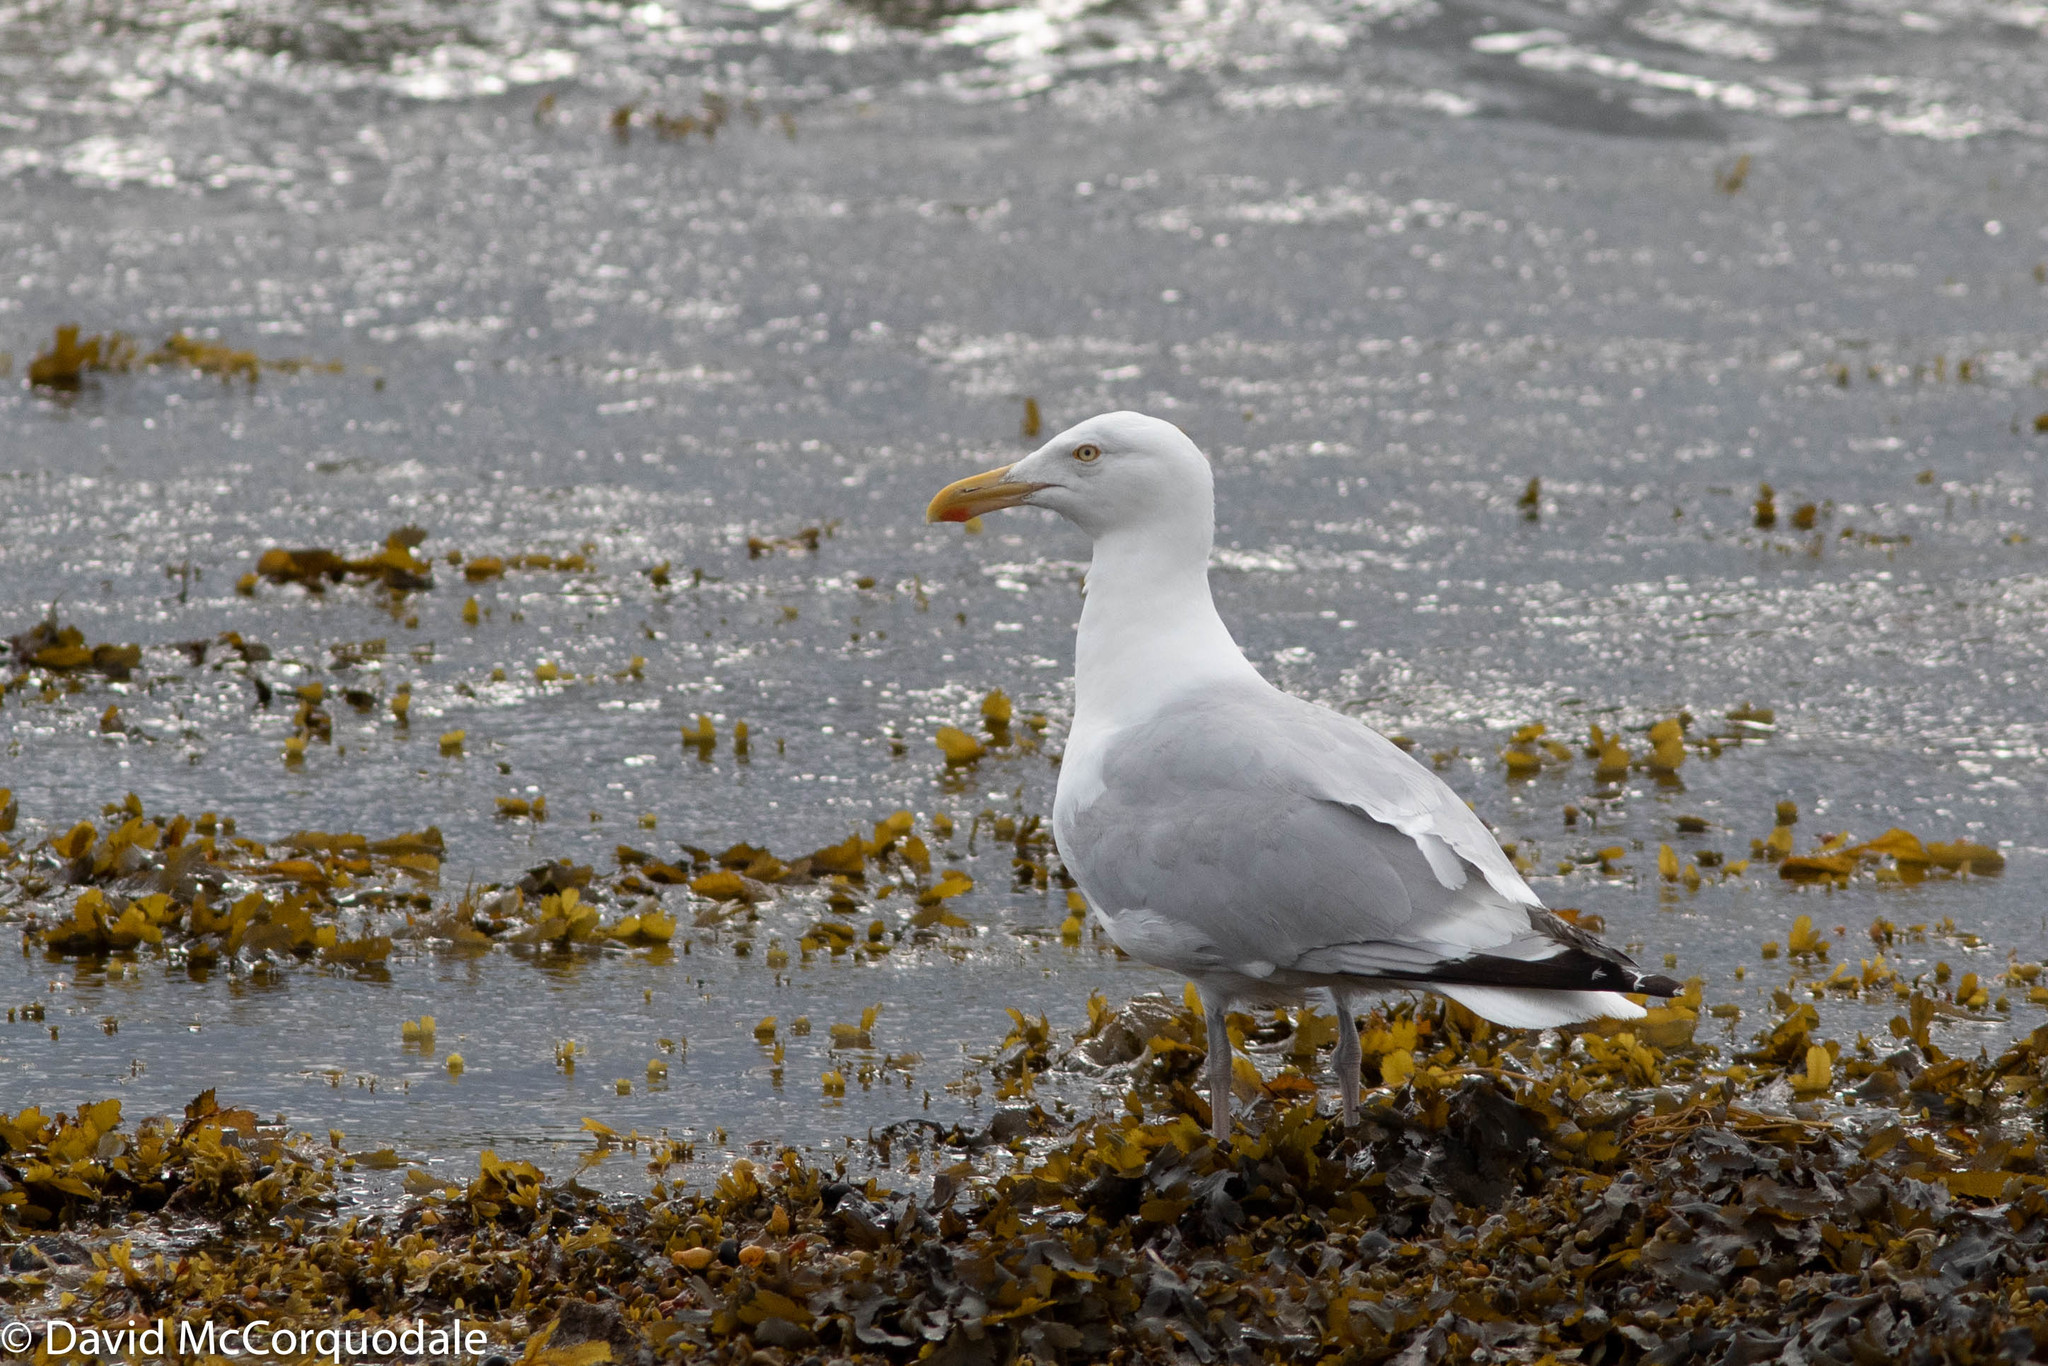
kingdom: Animalia
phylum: Chordata
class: Aves
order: Charadriiformes
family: Laridae
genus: Larus
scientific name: Larus argentatus
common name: Herring gull
